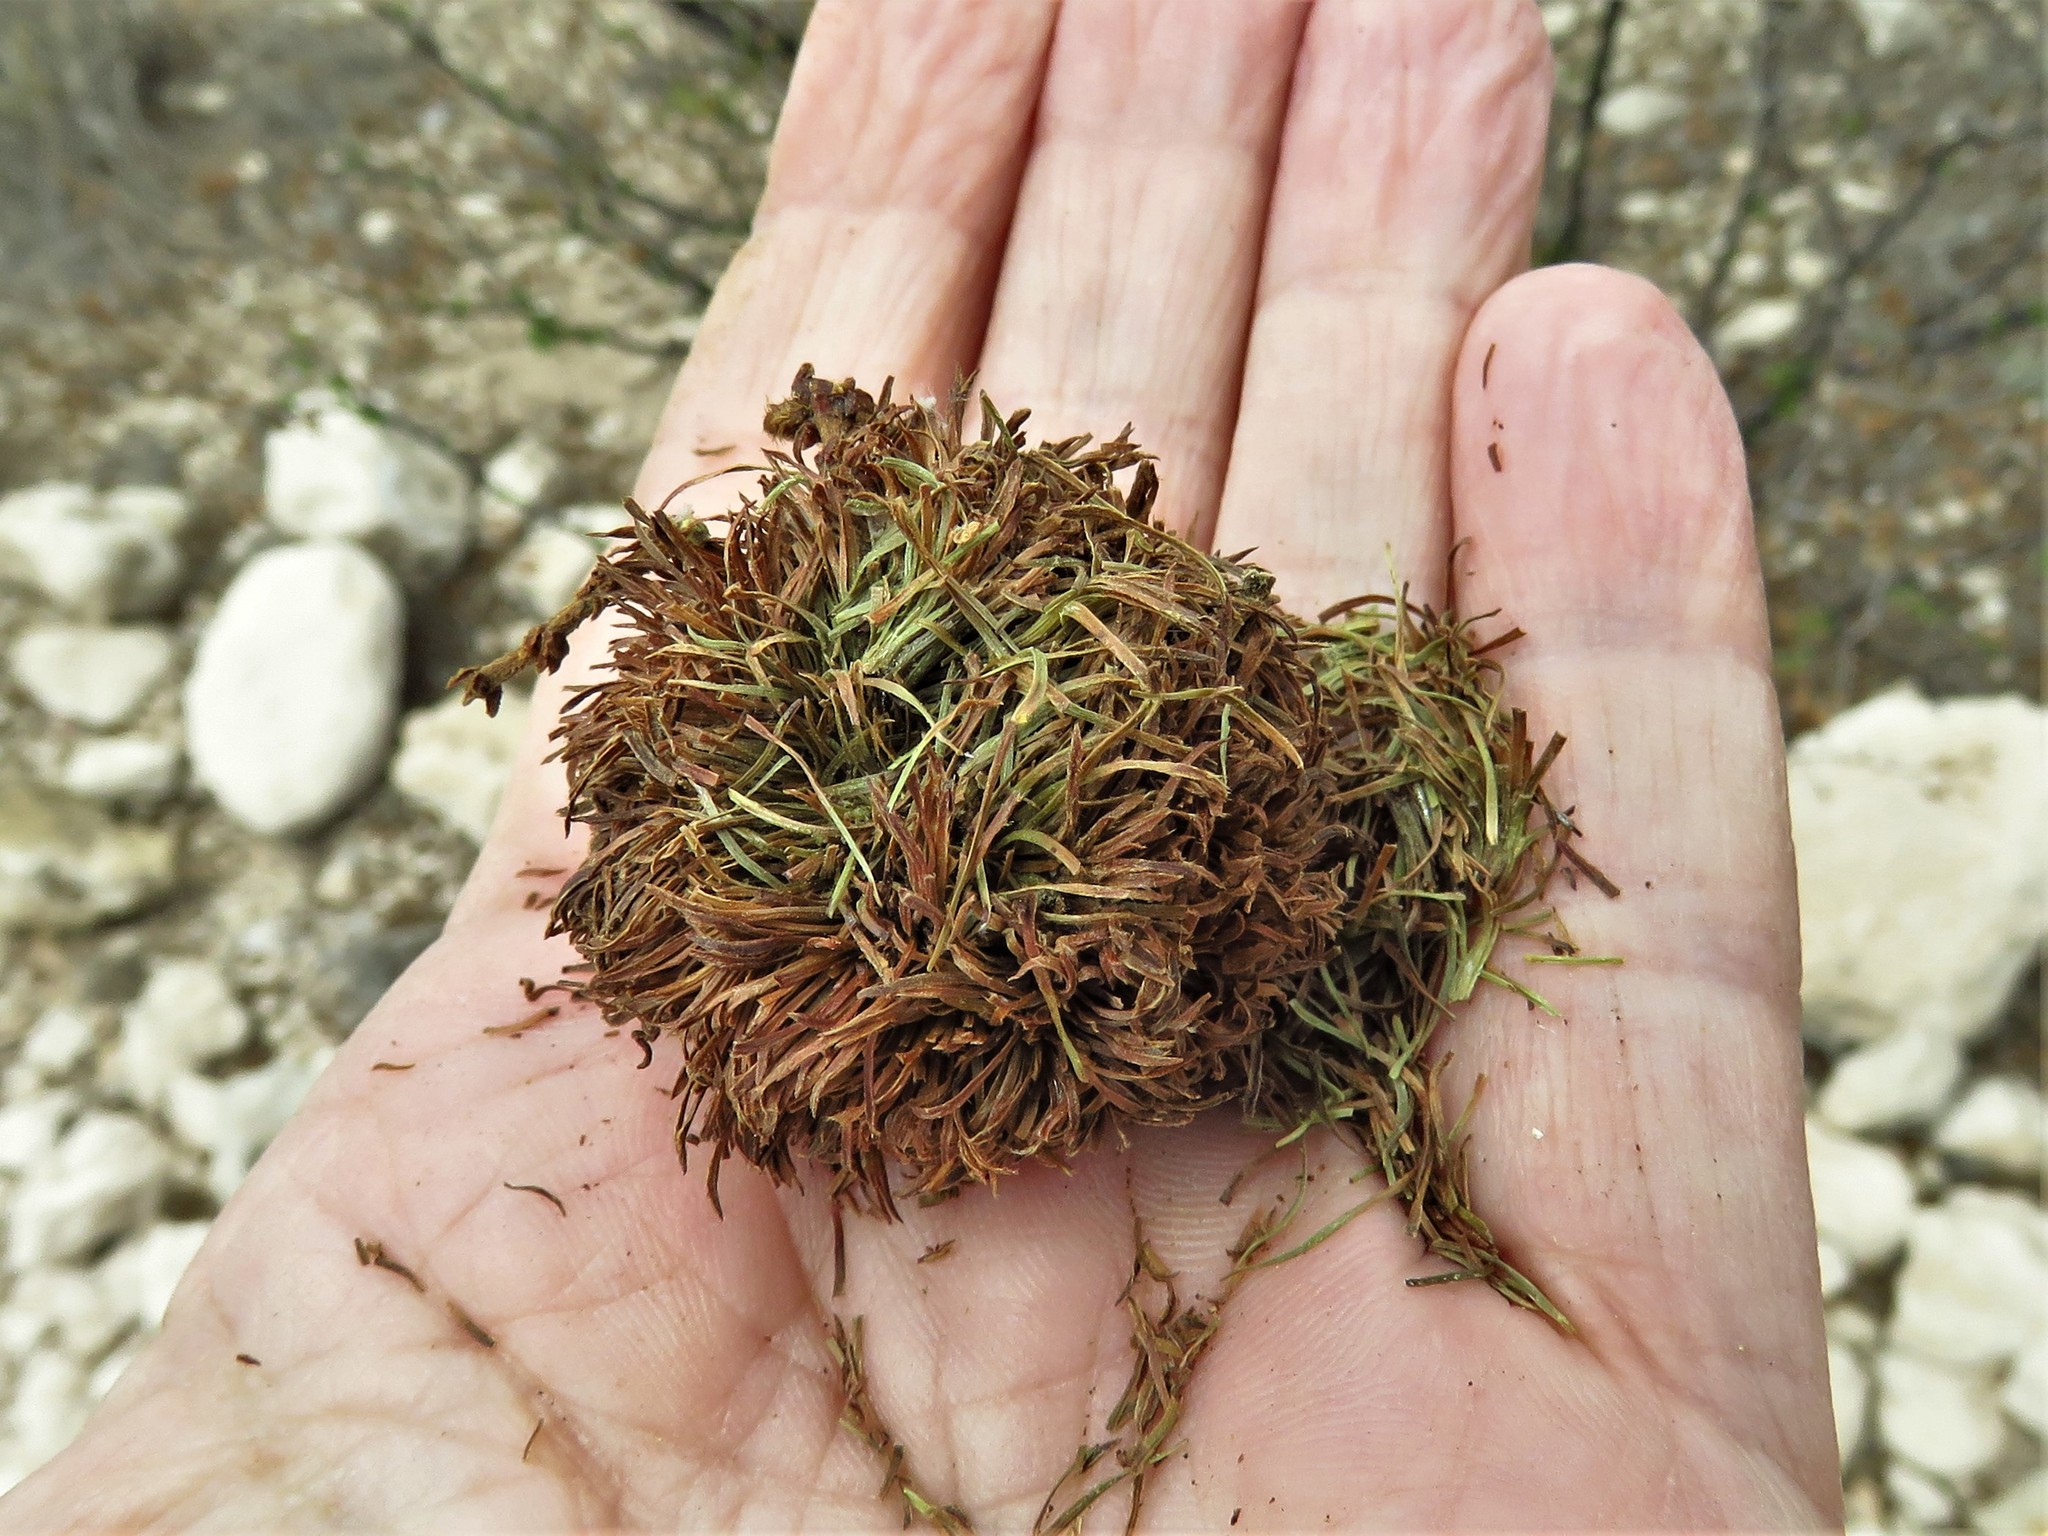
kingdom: Animalia
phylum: Arthropoda
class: Insecta
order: Diptera
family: Cecidomyiidae
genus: Asphondylia
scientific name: Asphondylia auripila
